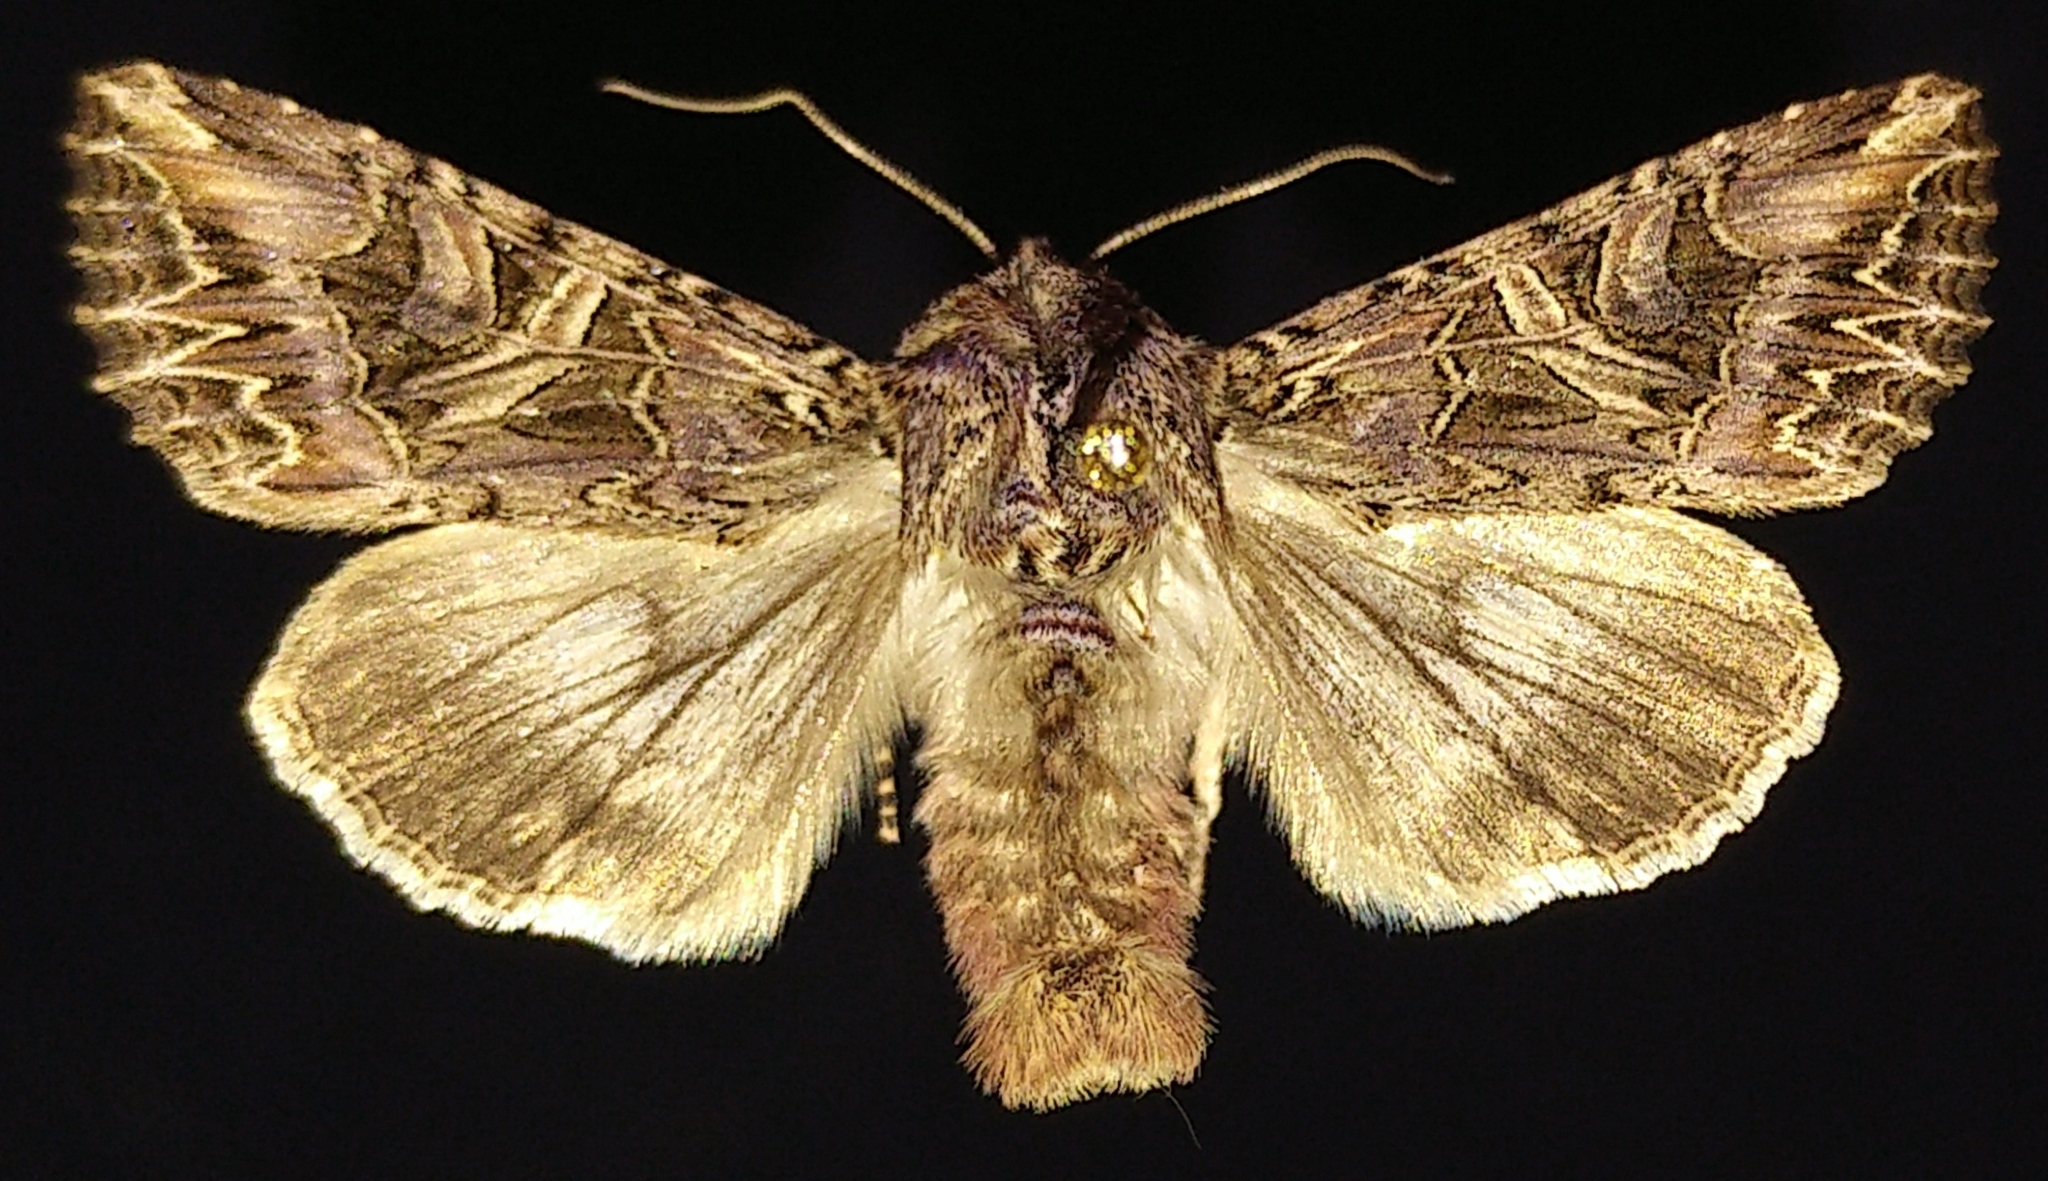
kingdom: Animalia
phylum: Arthropoda
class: Insecta
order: Lepidoptera
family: Noctuidae
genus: Anarta
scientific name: Anarta farnhami
